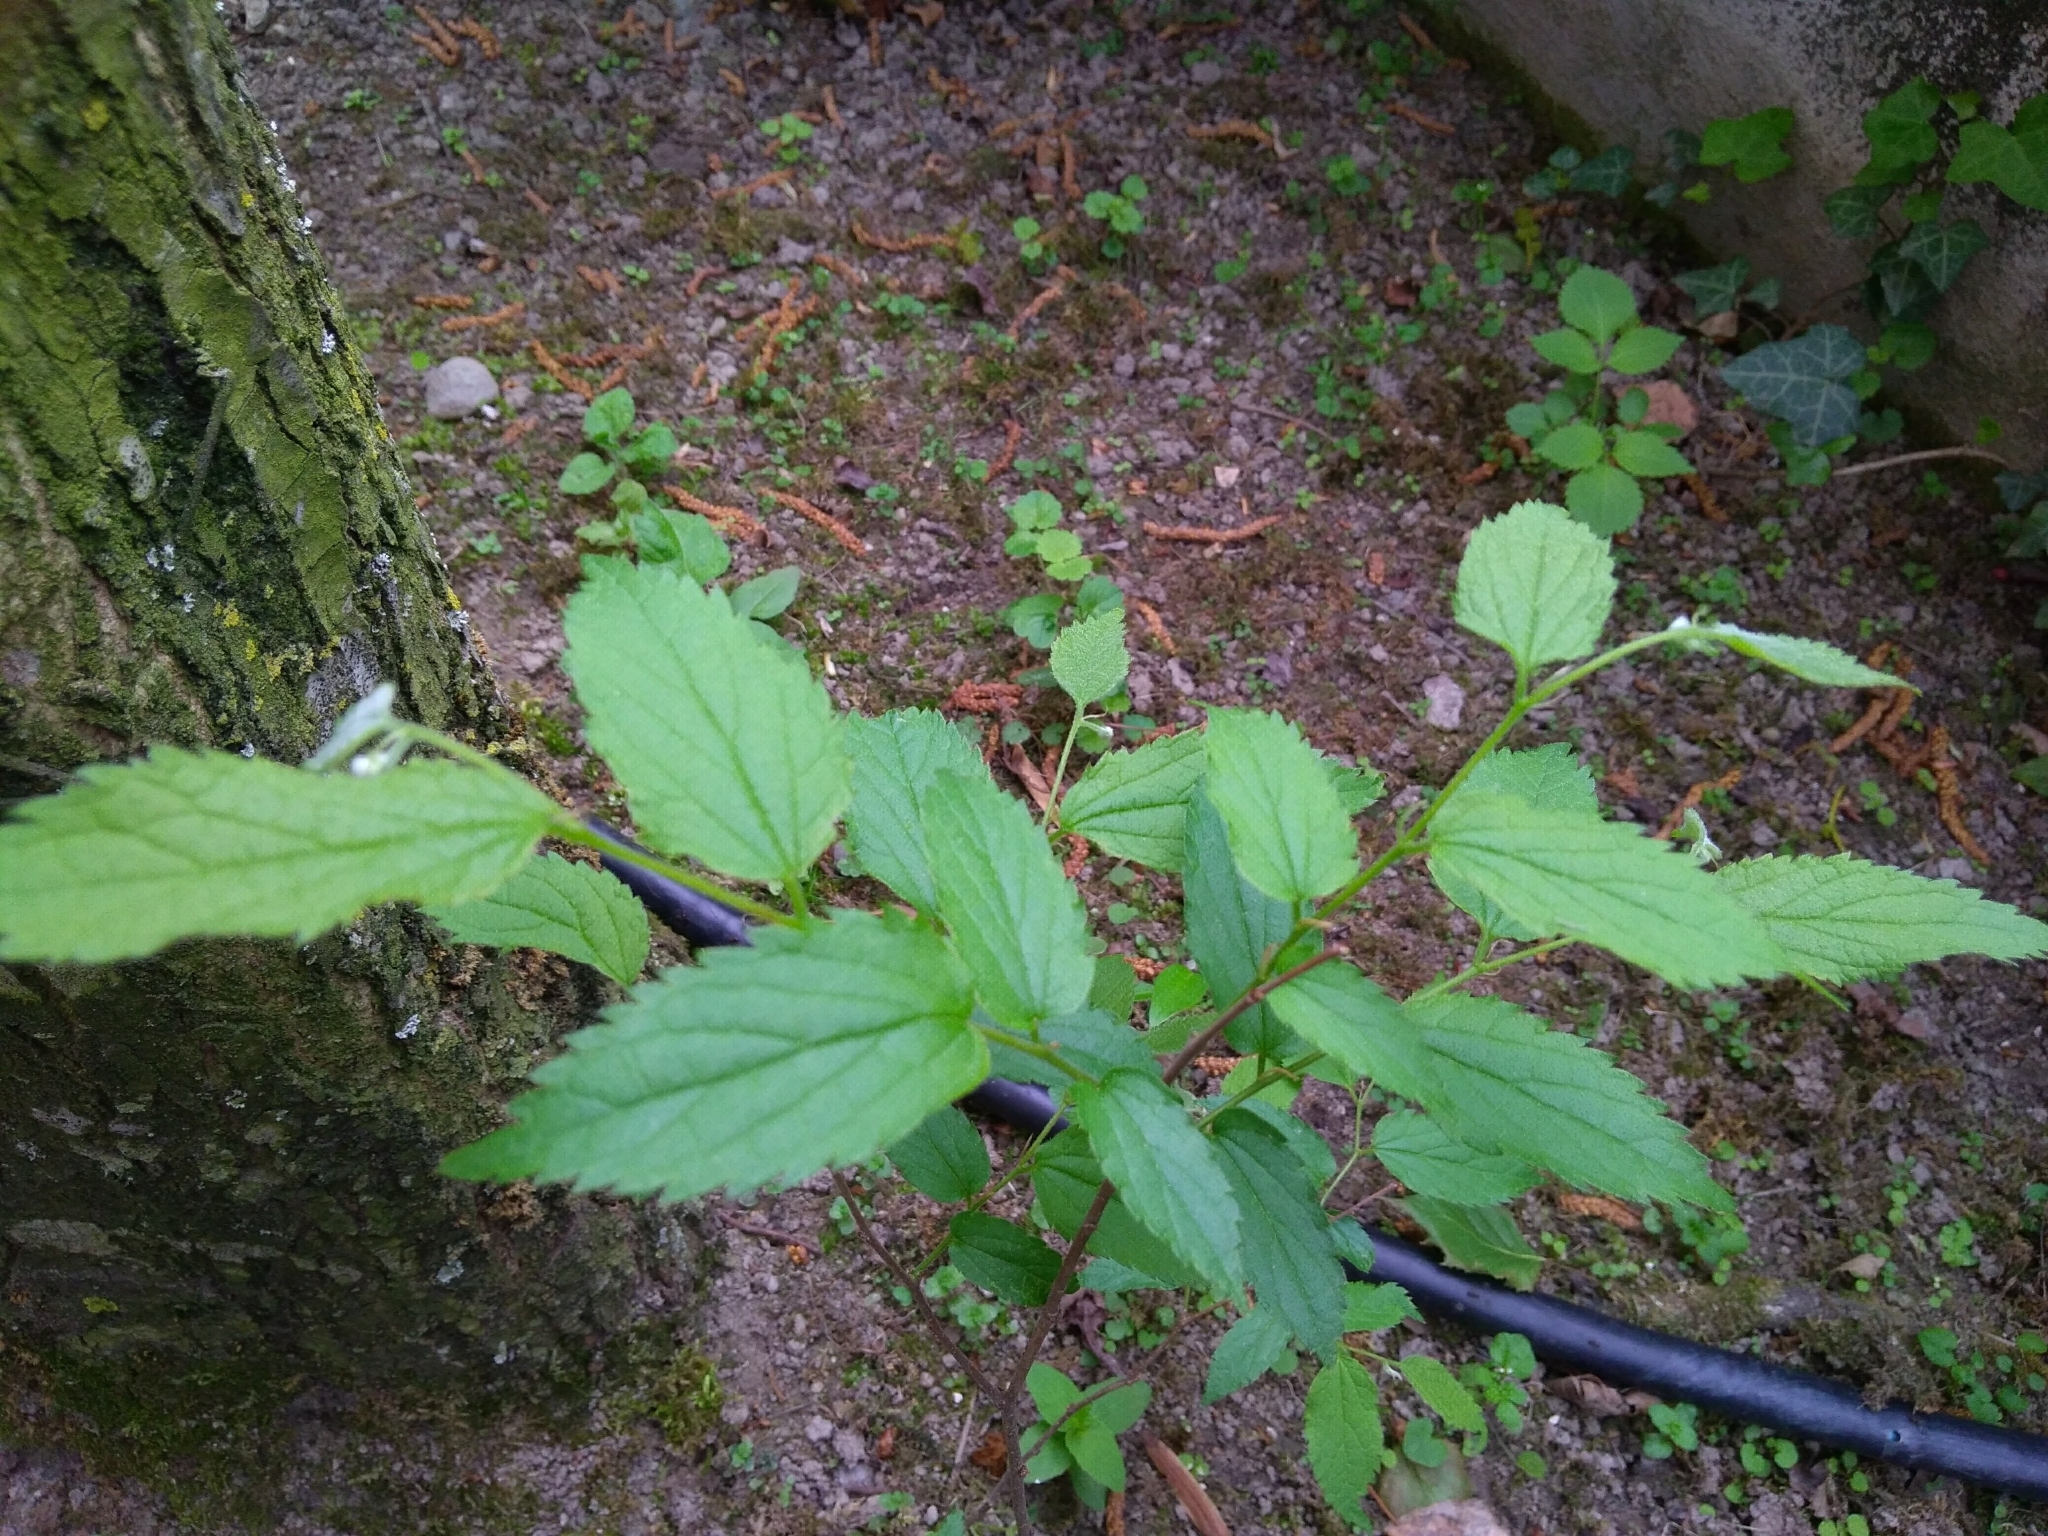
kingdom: Plantae
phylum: Tracheophyta
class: Magnoliopsida
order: Rosales
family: Cannabaceae
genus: Celtis
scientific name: Celtis australis
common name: European hackberry
